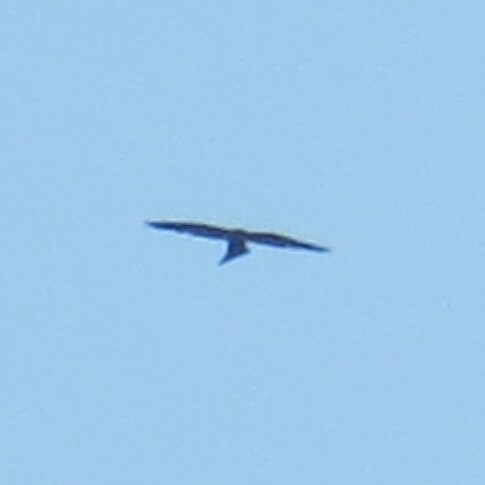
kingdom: Animalia
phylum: Chordata
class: Aves
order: Accipitriformes
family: Accipitridae
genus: Ictinia
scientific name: Ictinia mississippiensis
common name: Mississippi kite
